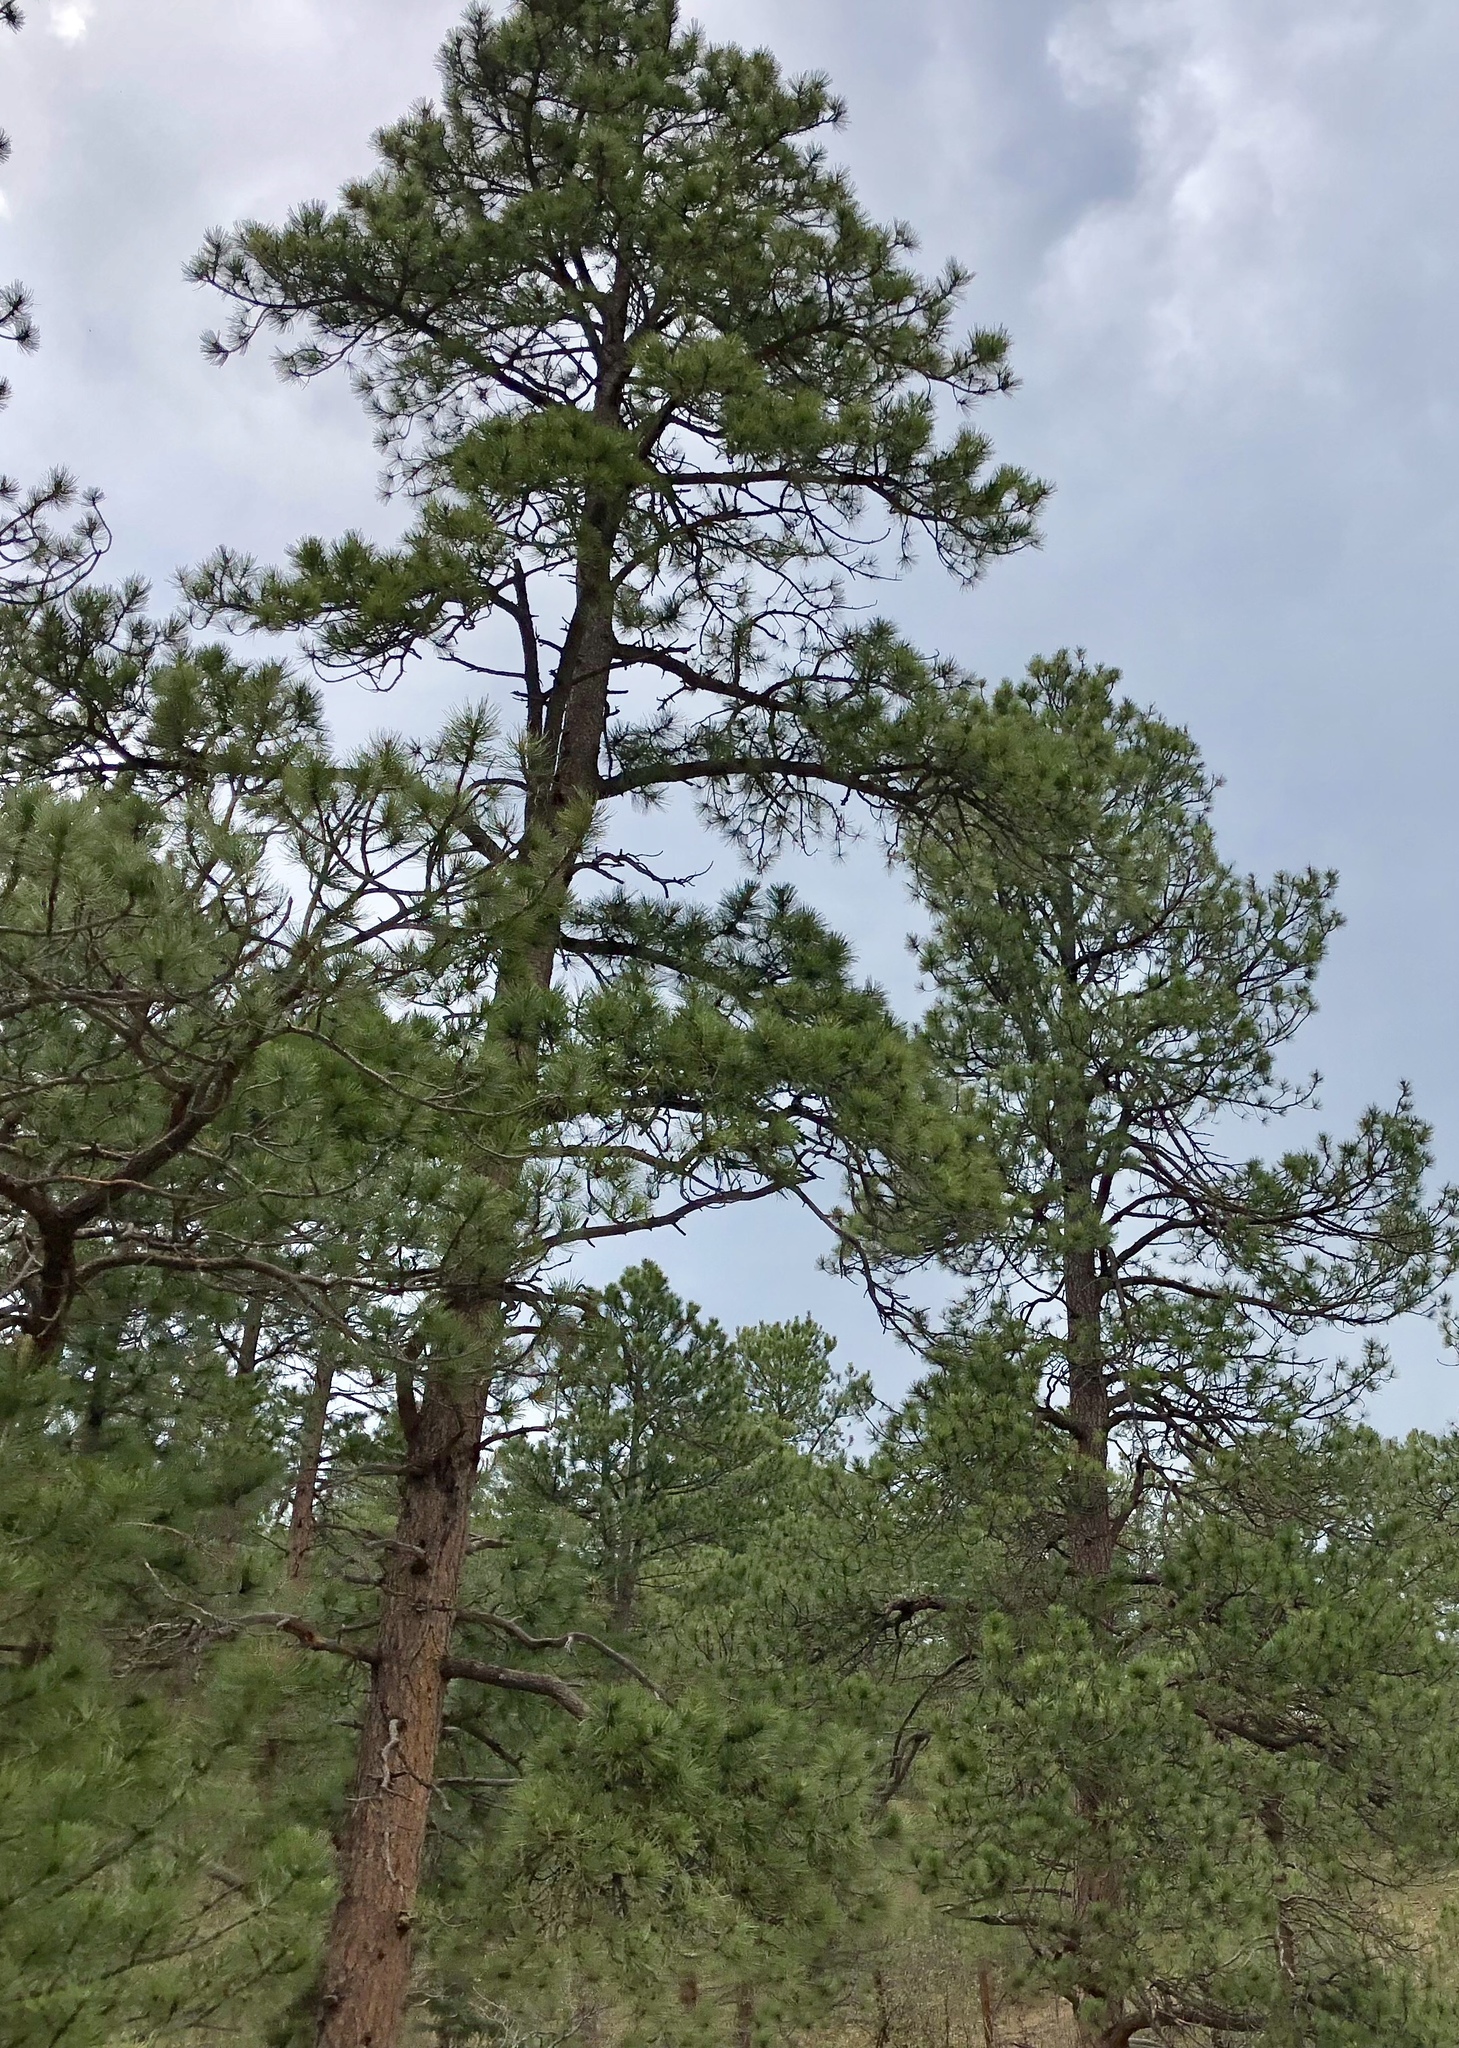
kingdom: Plantae
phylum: Tracheophyta
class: Pinopsida
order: Pinales
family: Pinaceae
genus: Pinus
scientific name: Pinus ponderosa
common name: Western yellow-pine
